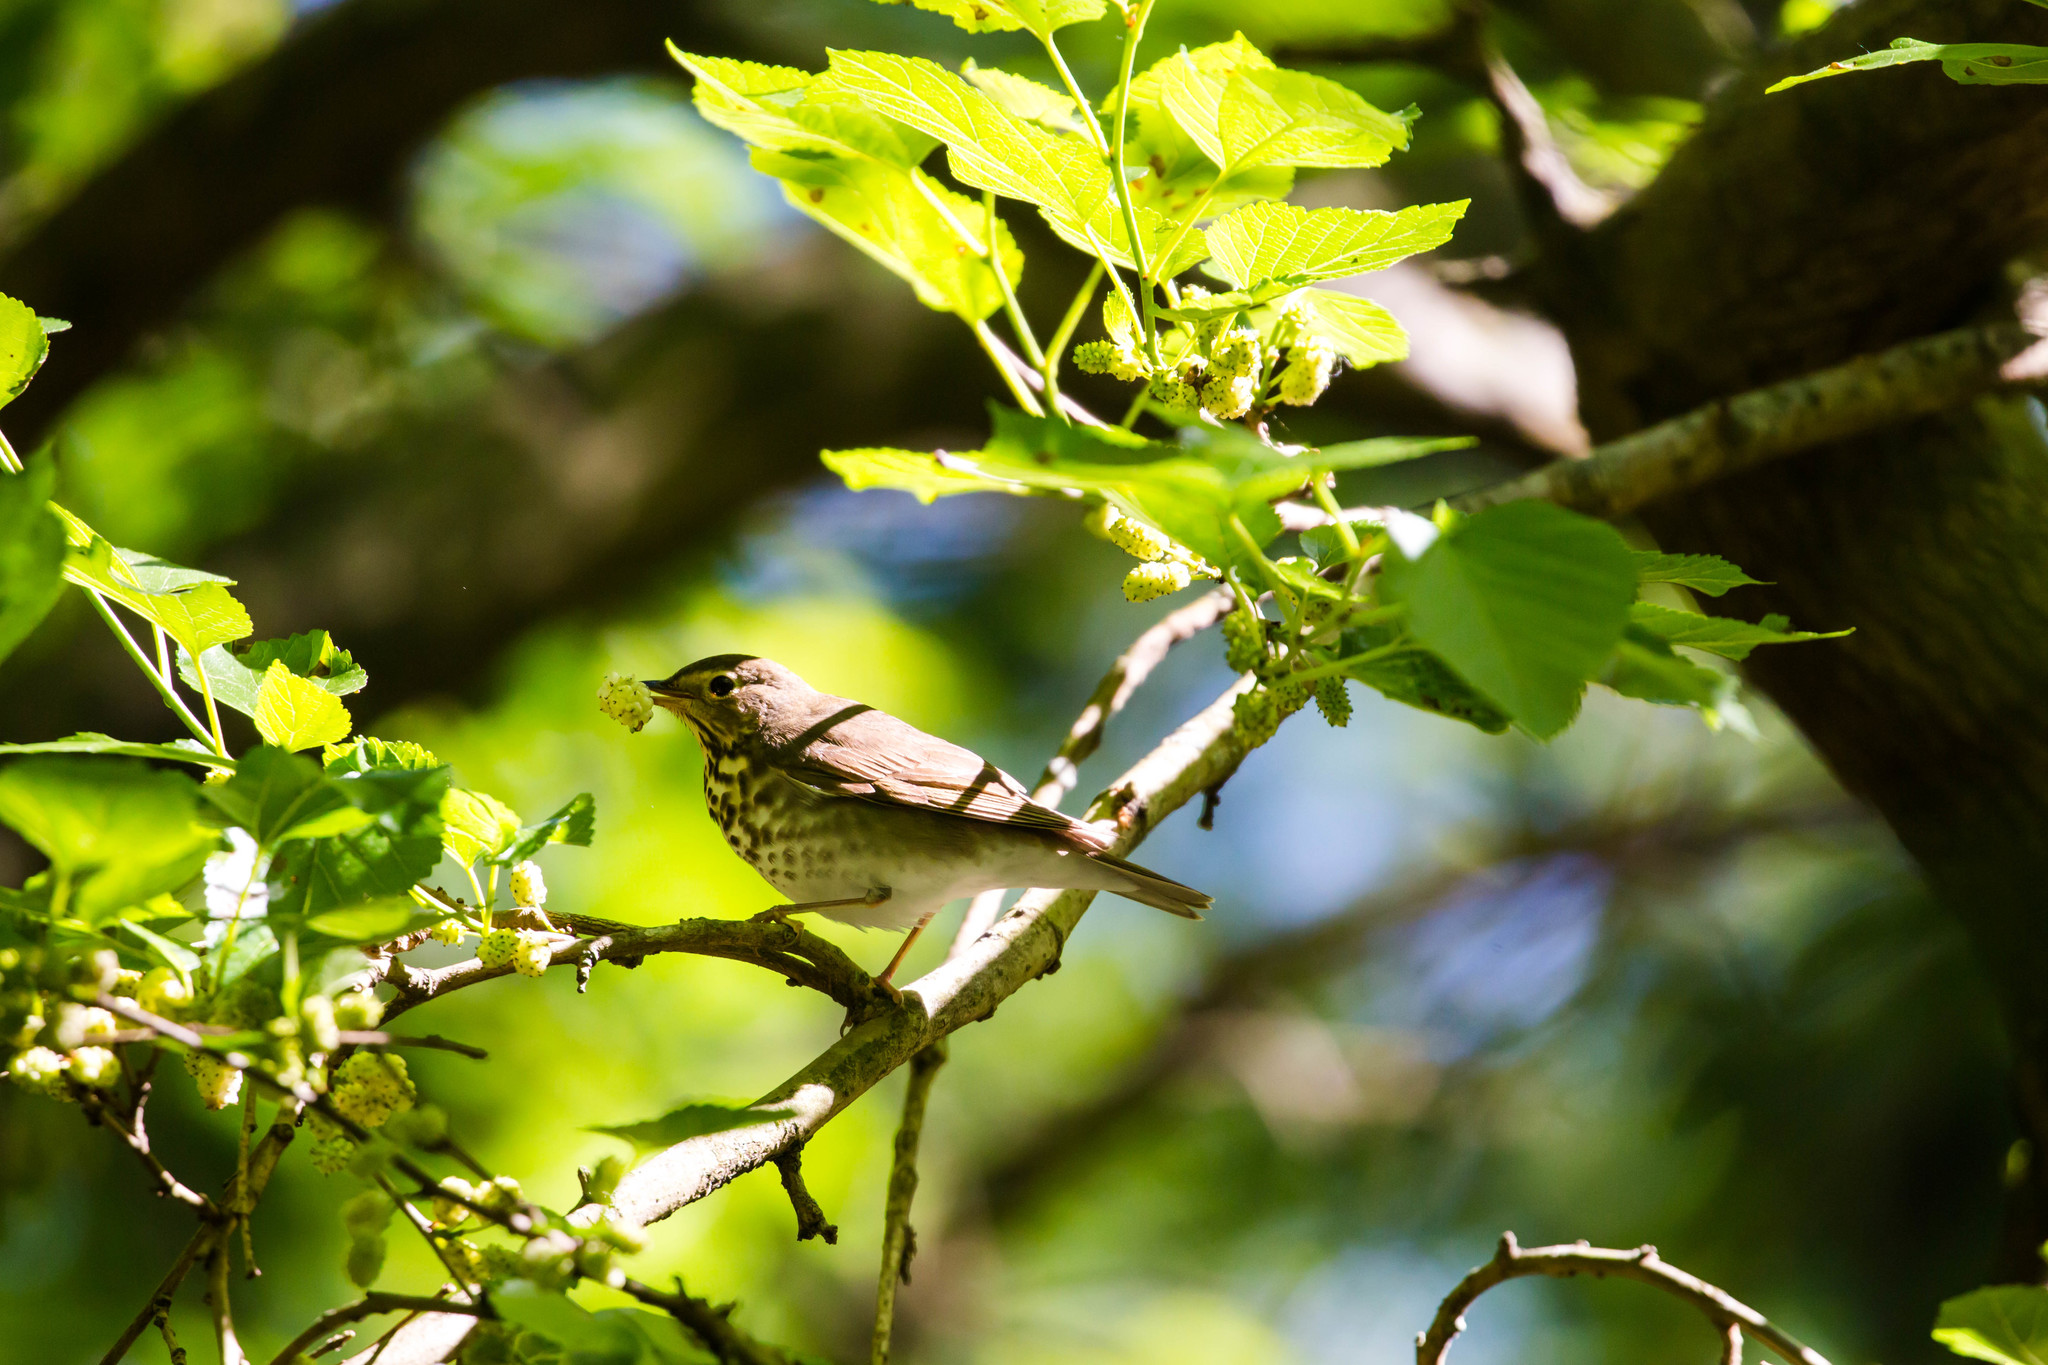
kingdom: Animalia
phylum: Chordata
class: Aves
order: Passeriformes
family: Turdidae
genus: Catharus
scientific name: Catharus ustulatus
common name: Swainson's thrush
